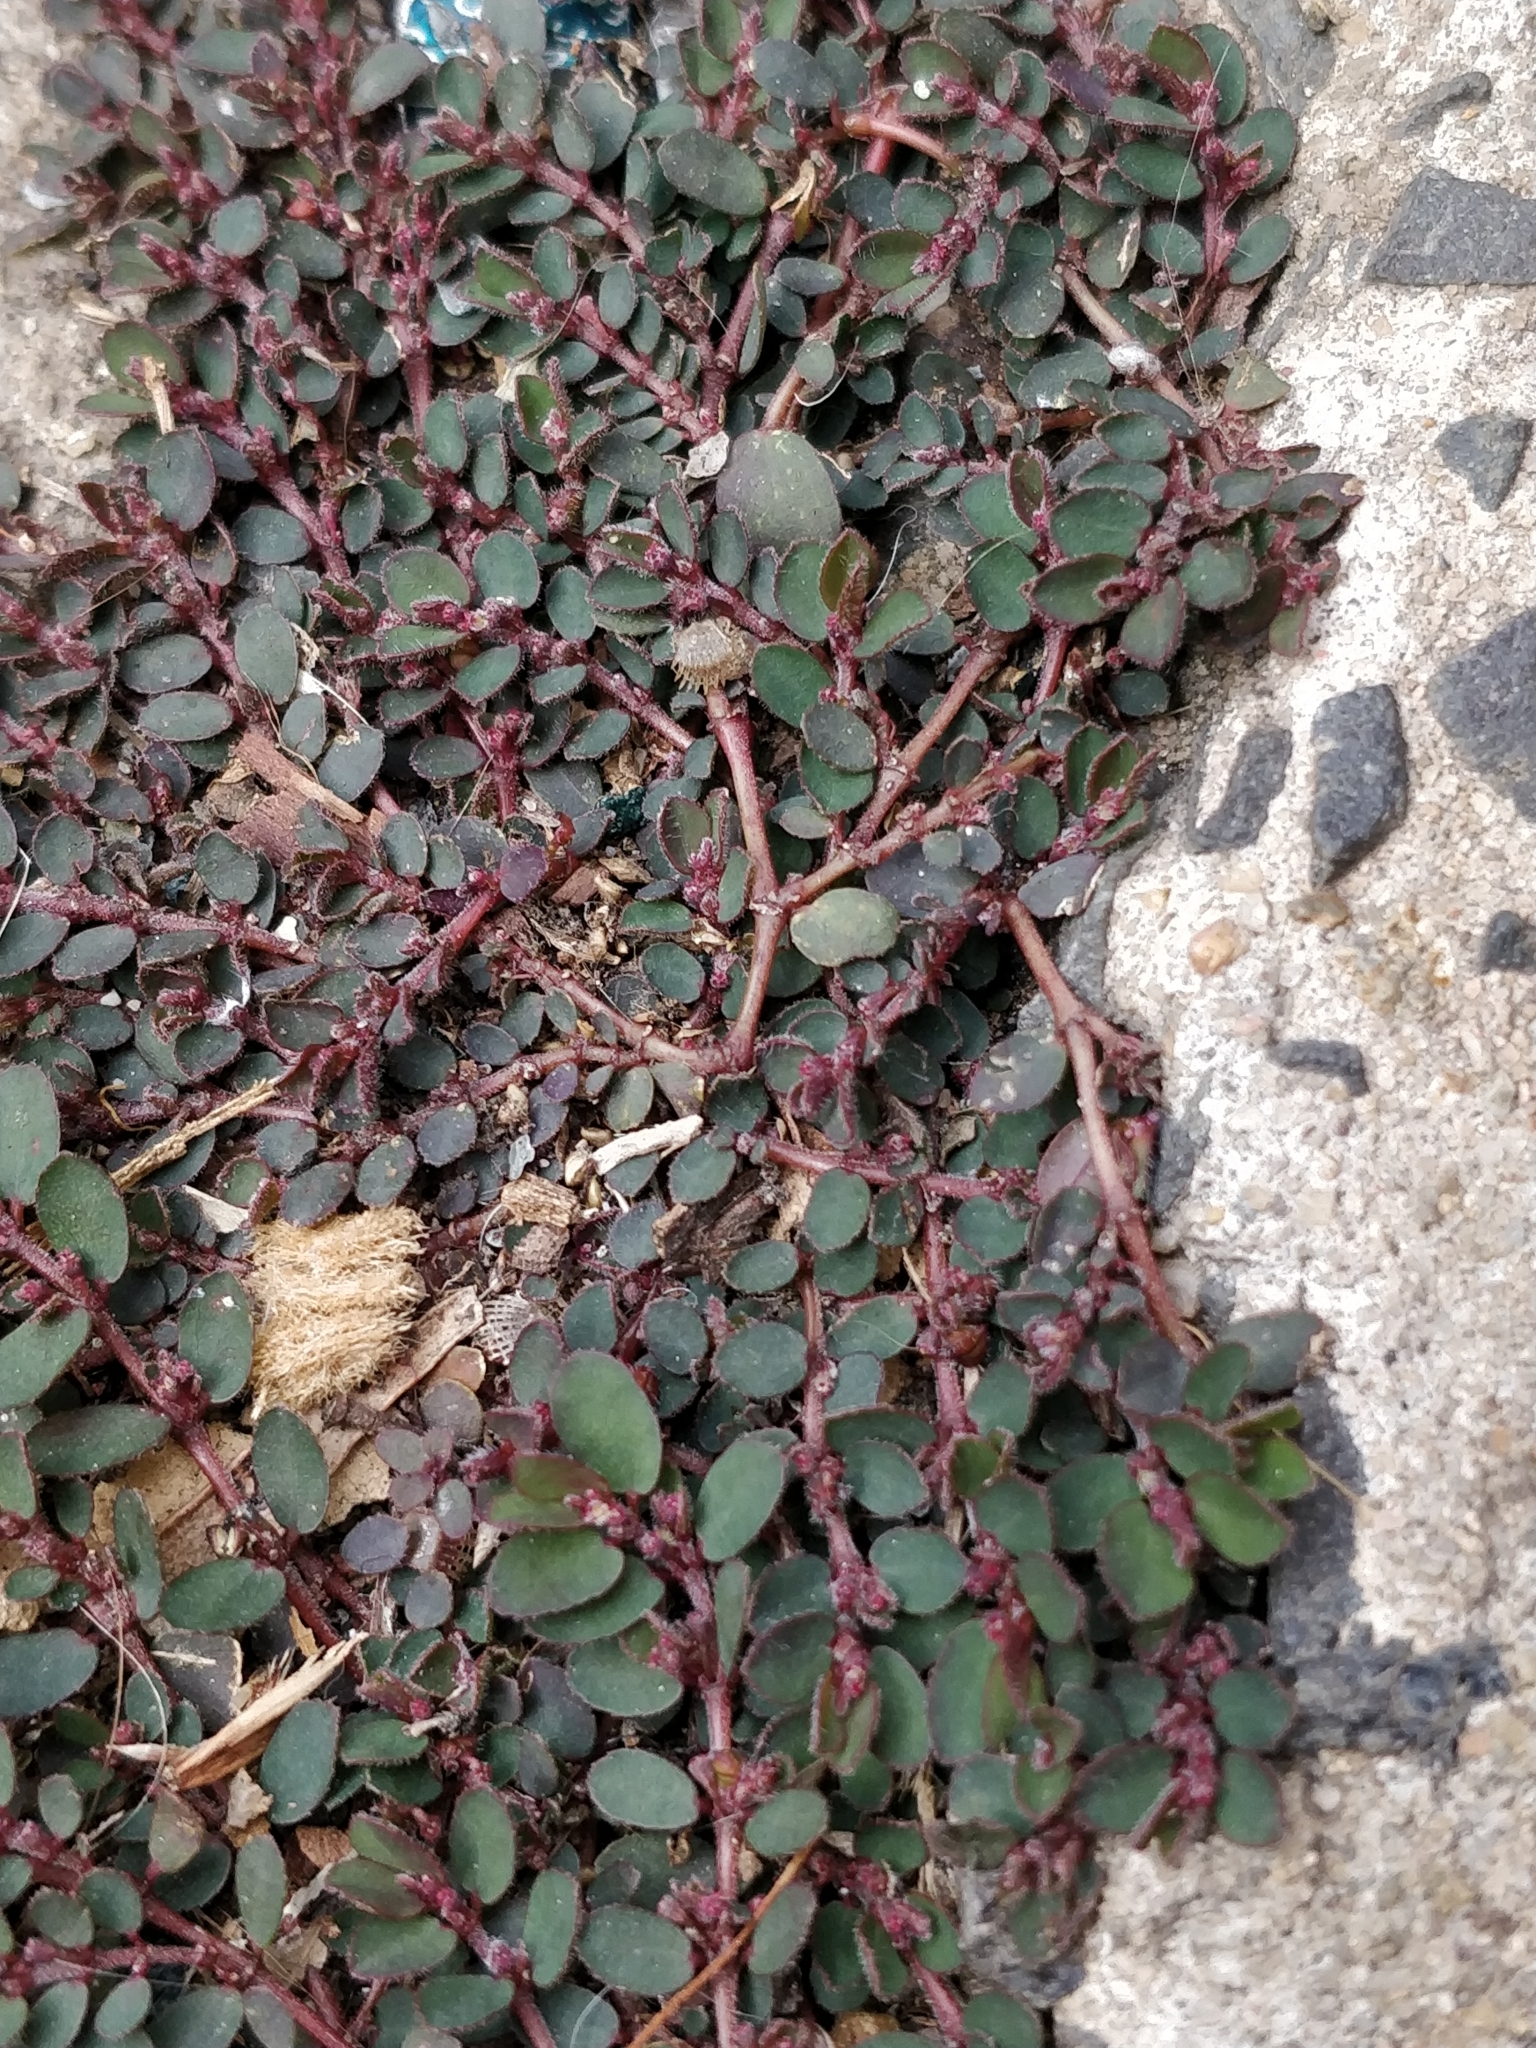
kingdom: Plantae
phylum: Tracheophyta
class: Magnoliopsida
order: Malpighiales
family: Euphorbiaceae
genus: Euphorbia
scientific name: Euphorbia prostrata
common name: Prostrate sandmat
